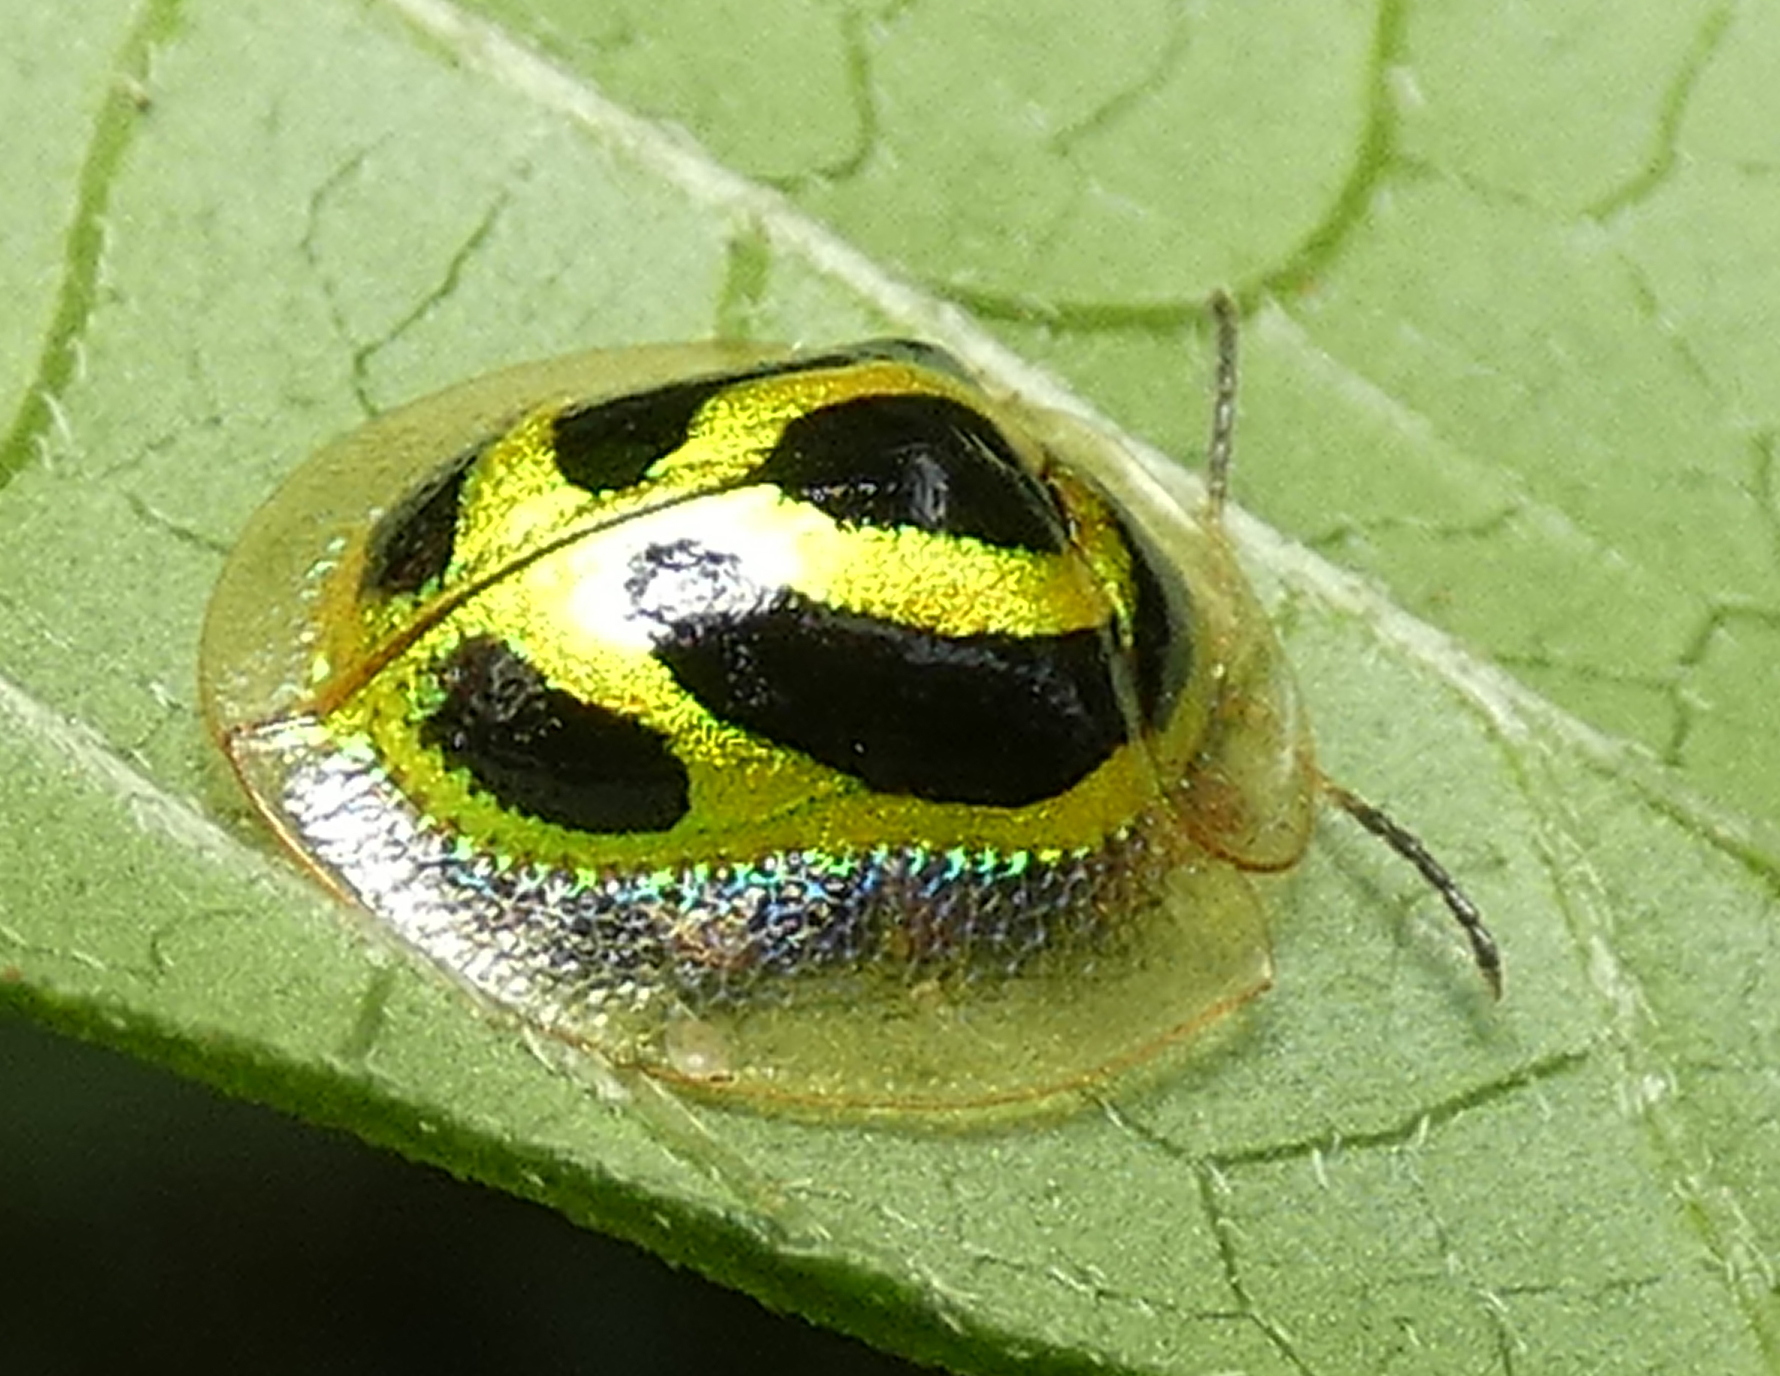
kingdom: Animalia
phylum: Arthropoda
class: Insecta
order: Coleoptera
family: Chrysomelidae
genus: Coptocycla
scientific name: Coptocycla arcuata
